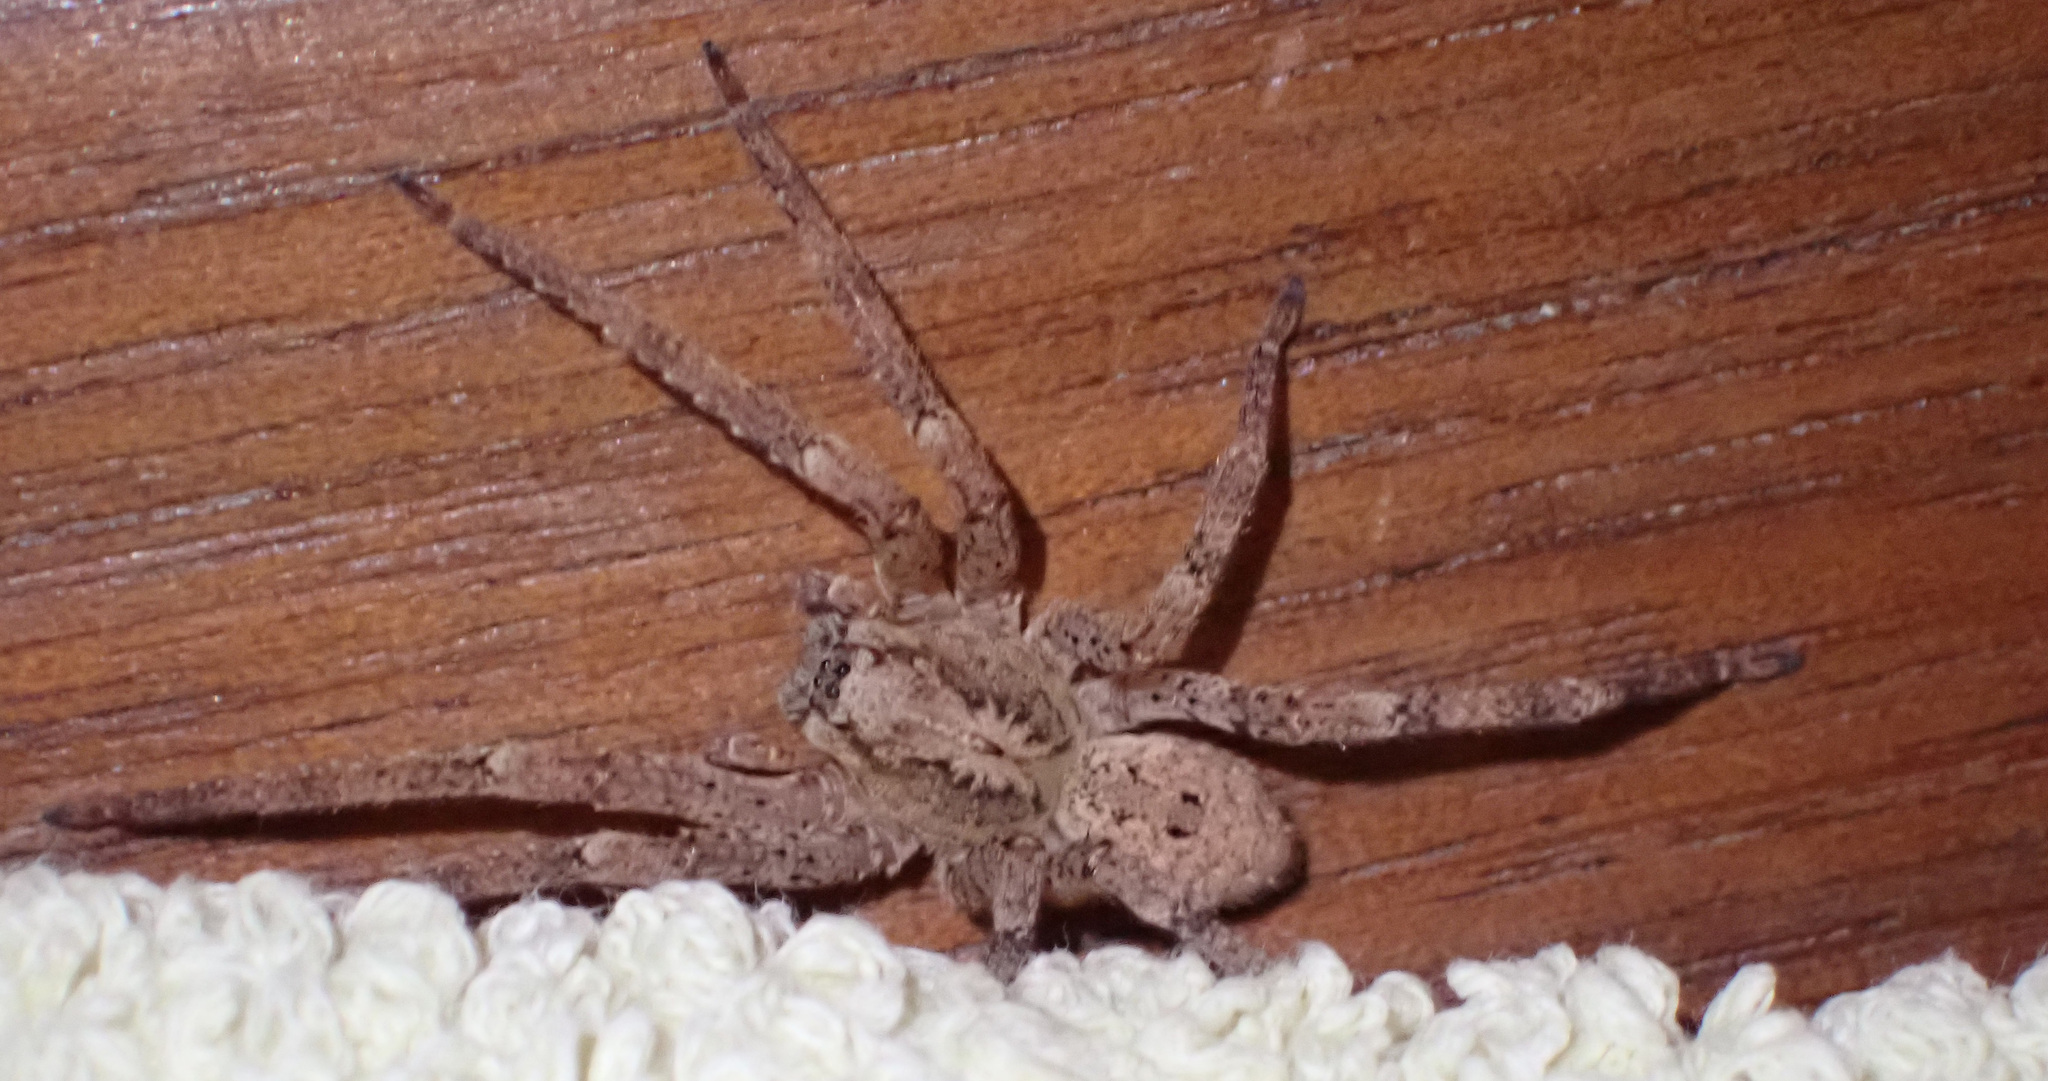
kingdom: Animalia
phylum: Arthropoda
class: Arachnida
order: Araneae
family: Zoropsidae
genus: Zoropsis
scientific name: Zoropsis spinimana
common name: Zoropsid spider
